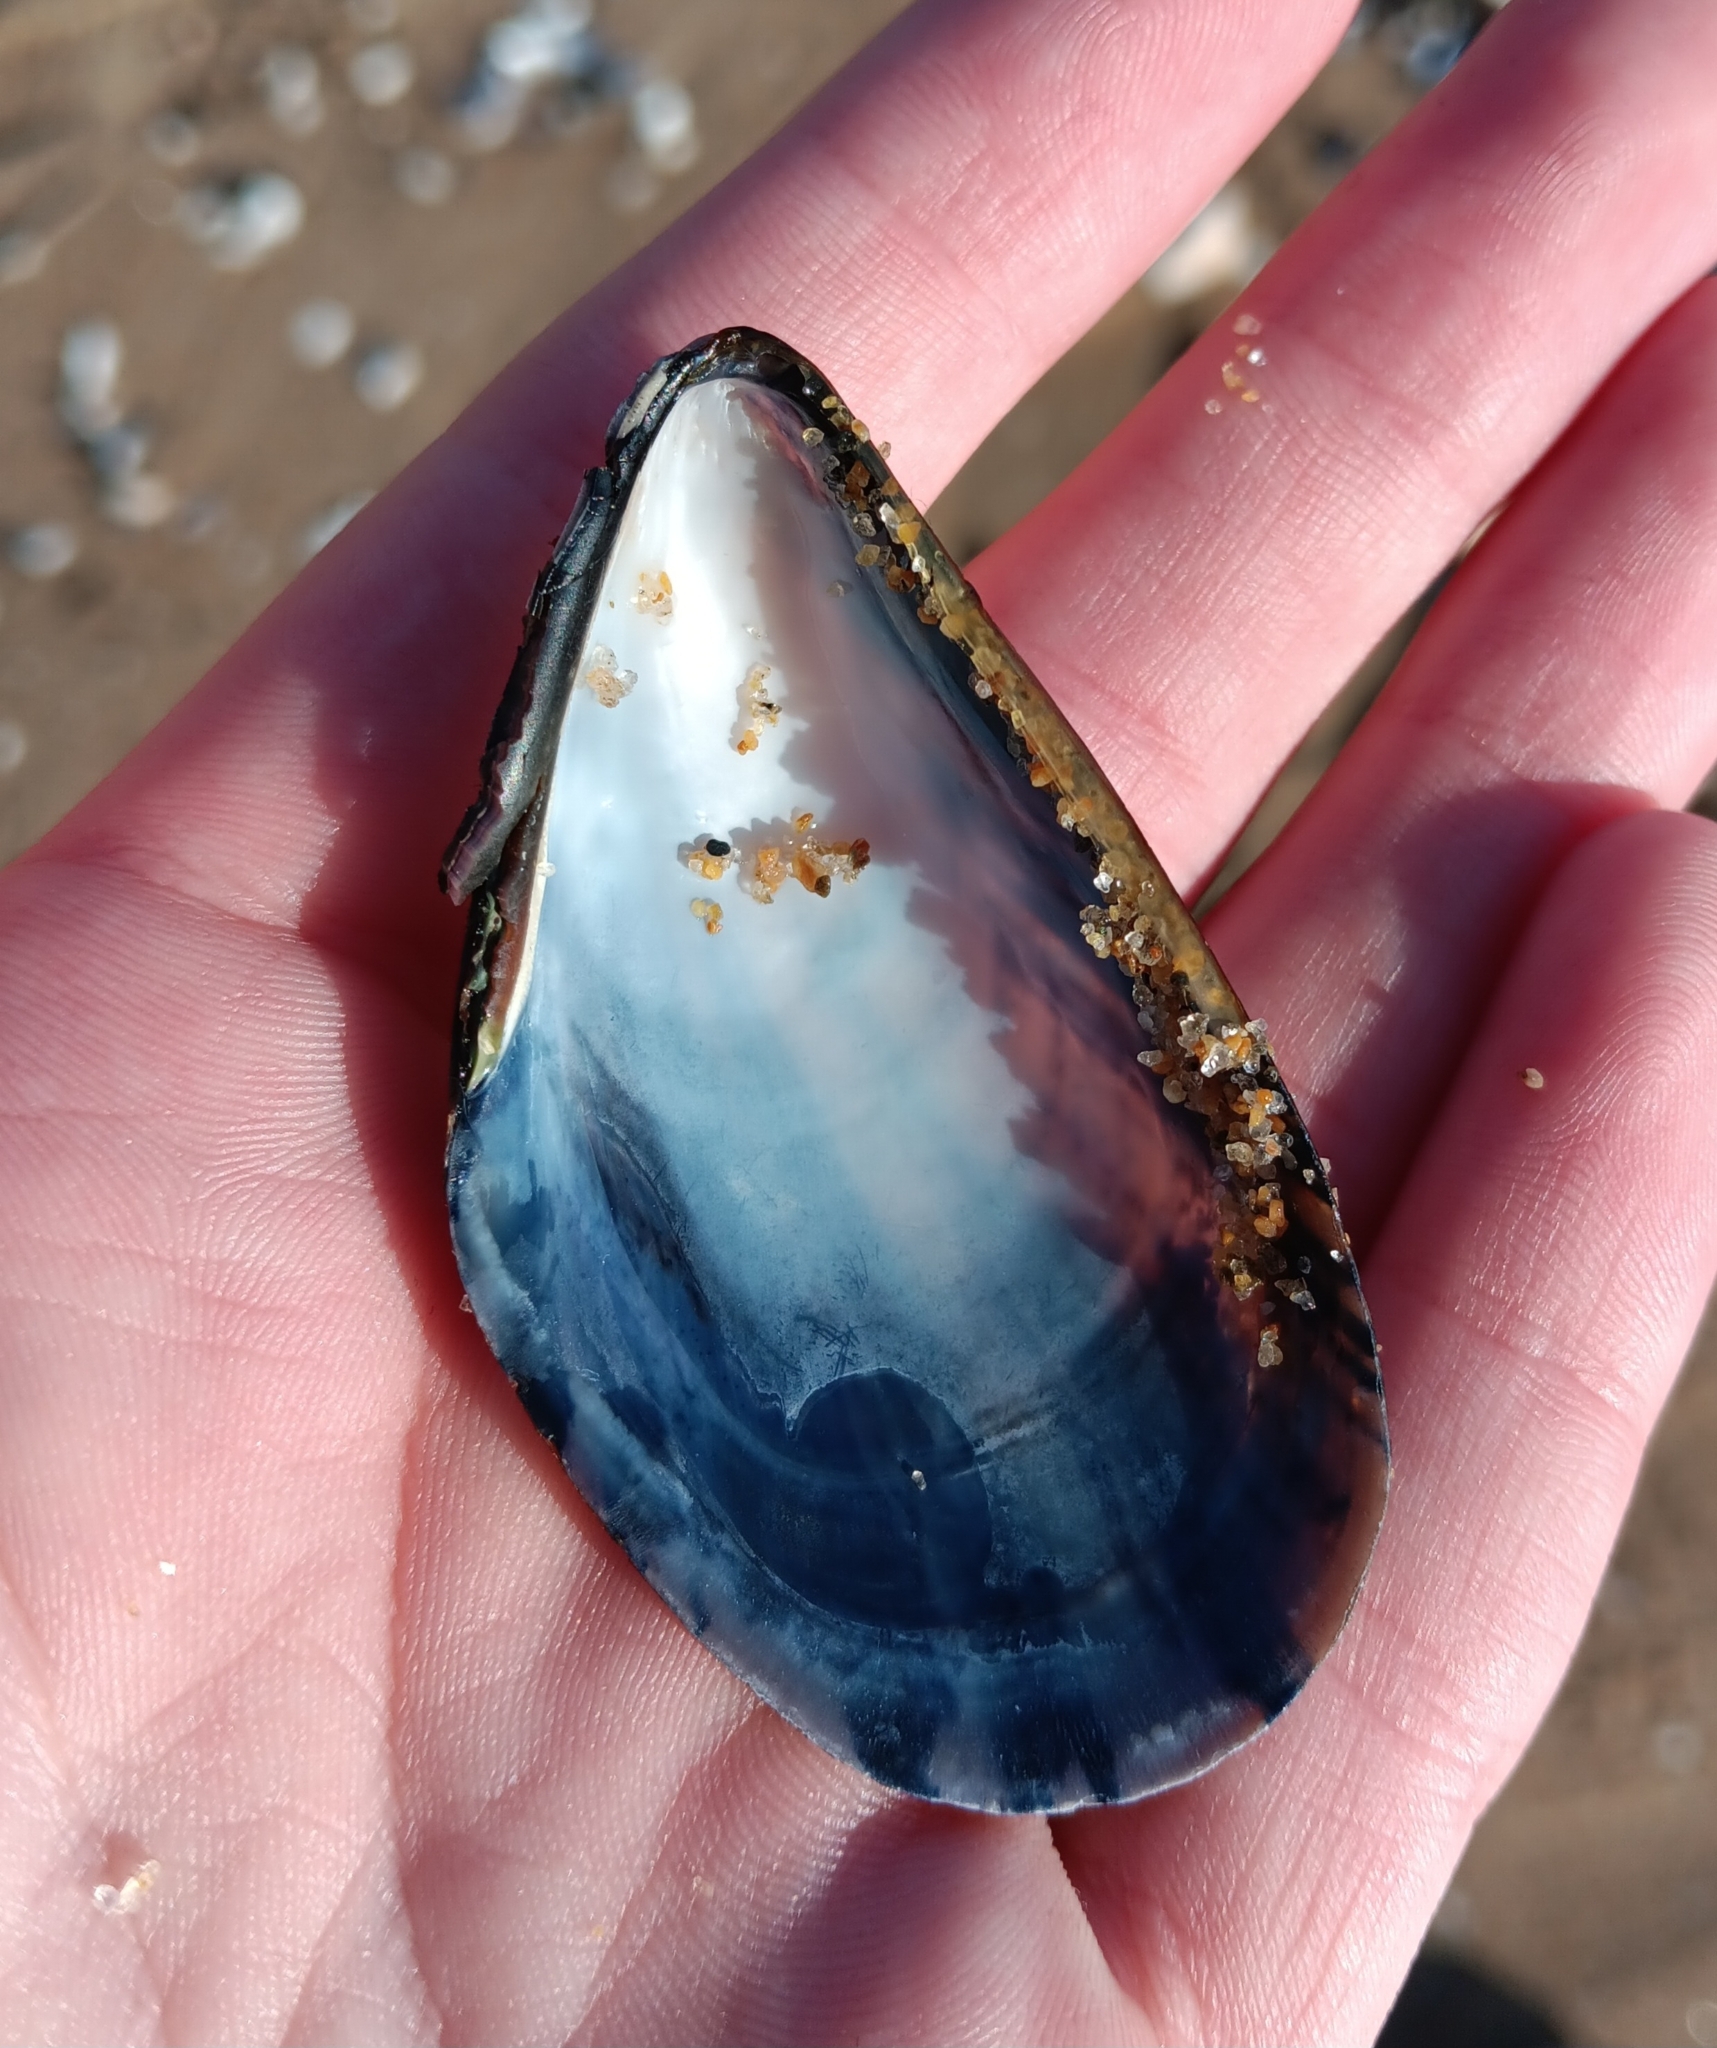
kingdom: Animalia
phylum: Mollusca
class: Bivalvia
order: Mytilida
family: Mytilidae
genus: Mytilus
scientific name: Mytilus edulis
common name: Blue mussel
